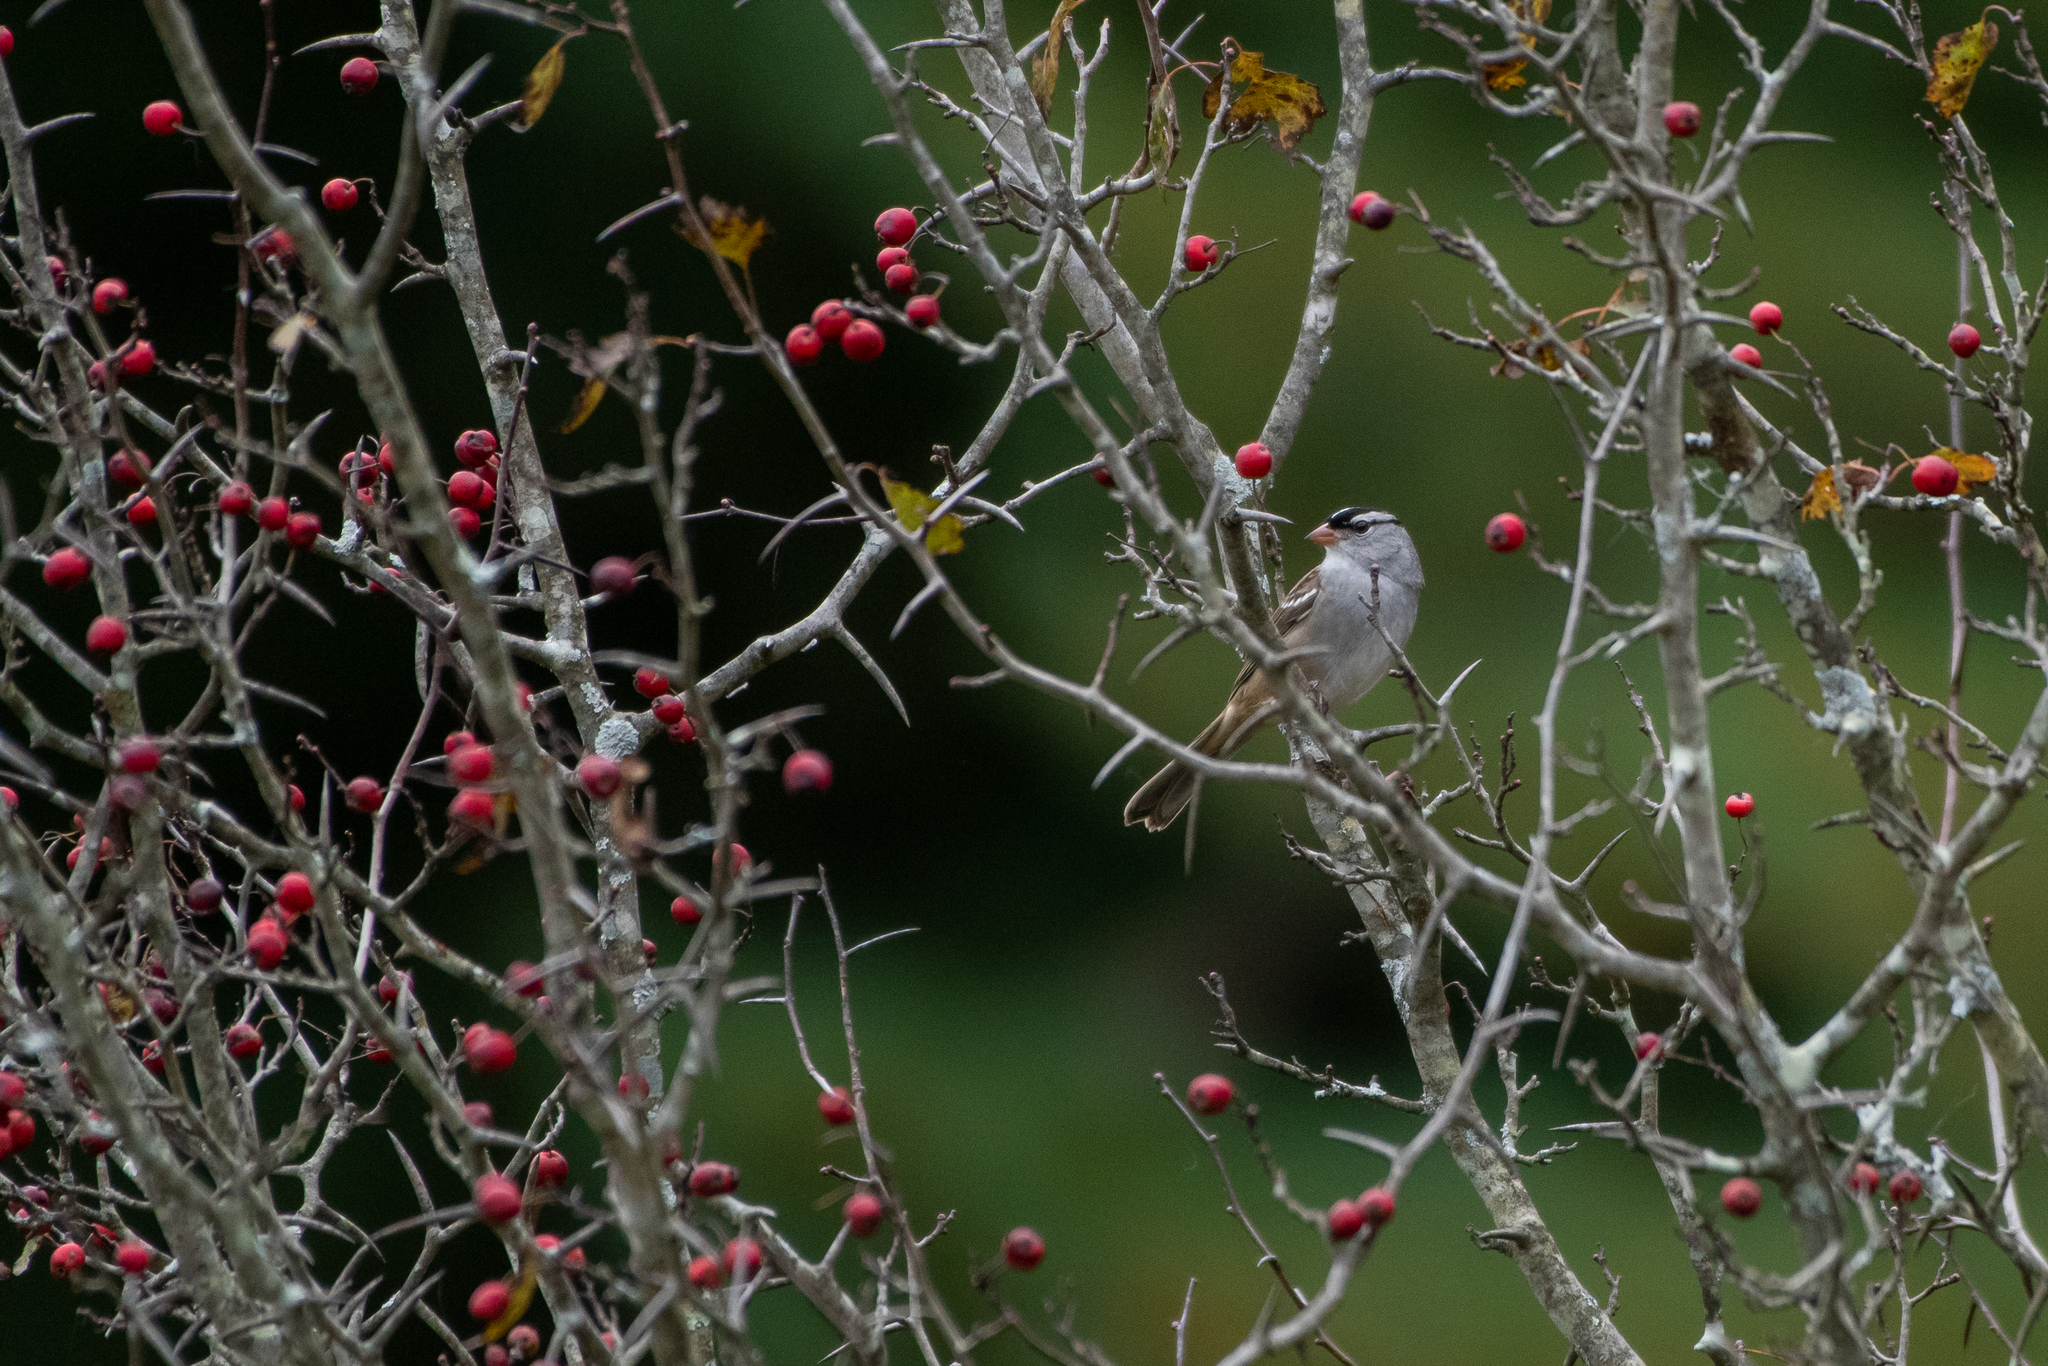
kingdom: Animalia
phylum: Chordata
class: Aves
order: Passeriformes
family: Passerellidae
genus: Zonotrichia
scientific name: Zonotrichia leucophrys
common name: White-crowned sparrow
